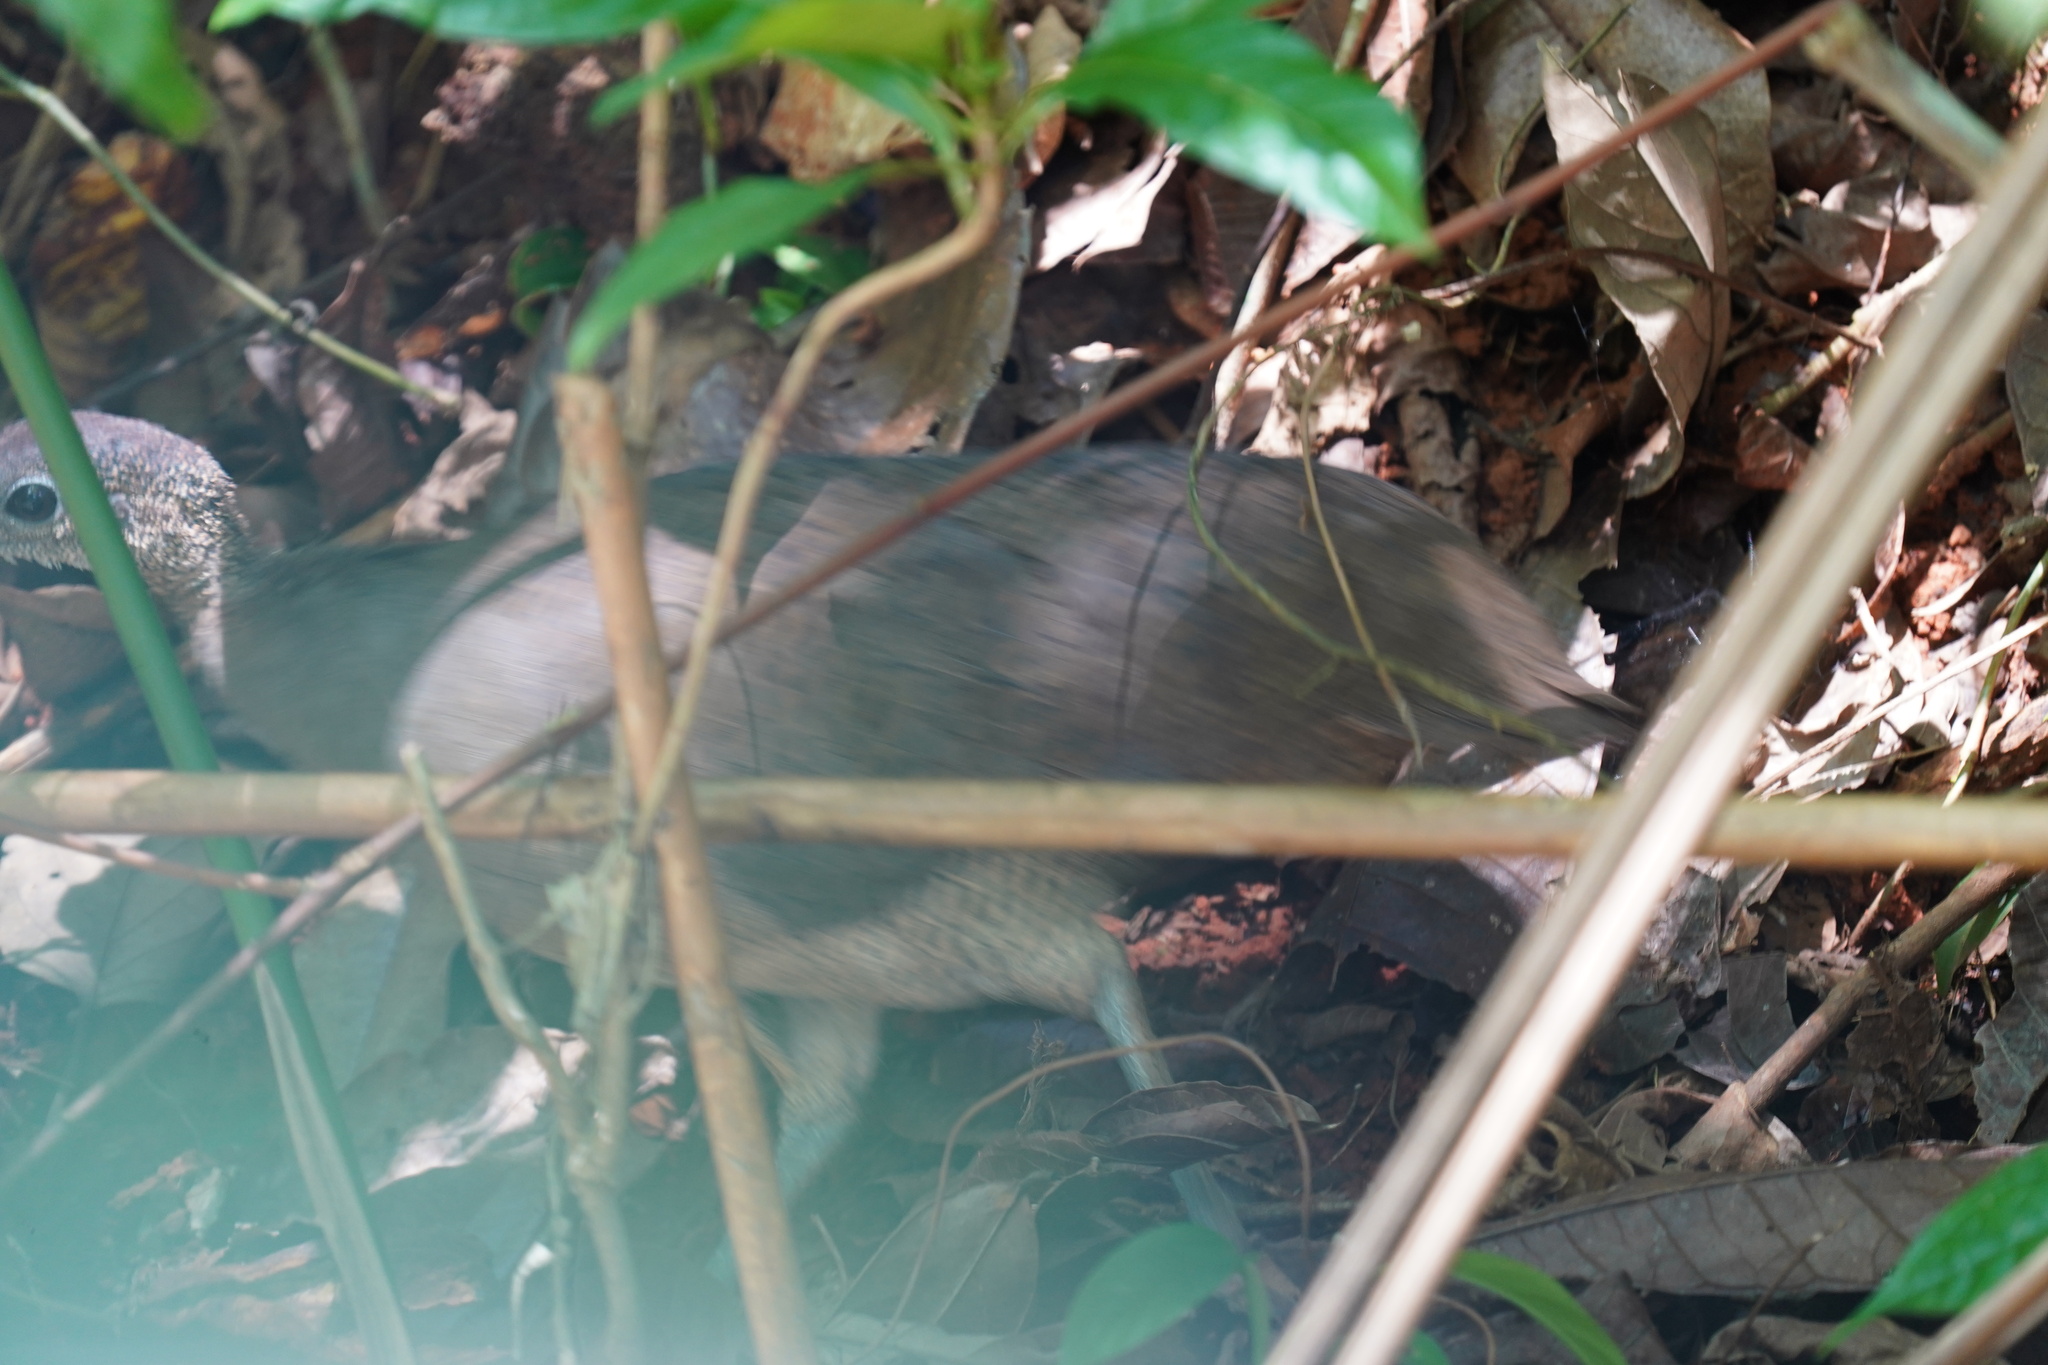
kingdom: Animalia
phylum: Chordata
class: Aves
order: Tinamiformes
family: Tinamidae
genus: Tinamus
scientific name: Tinamus major
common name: Great tinamou
